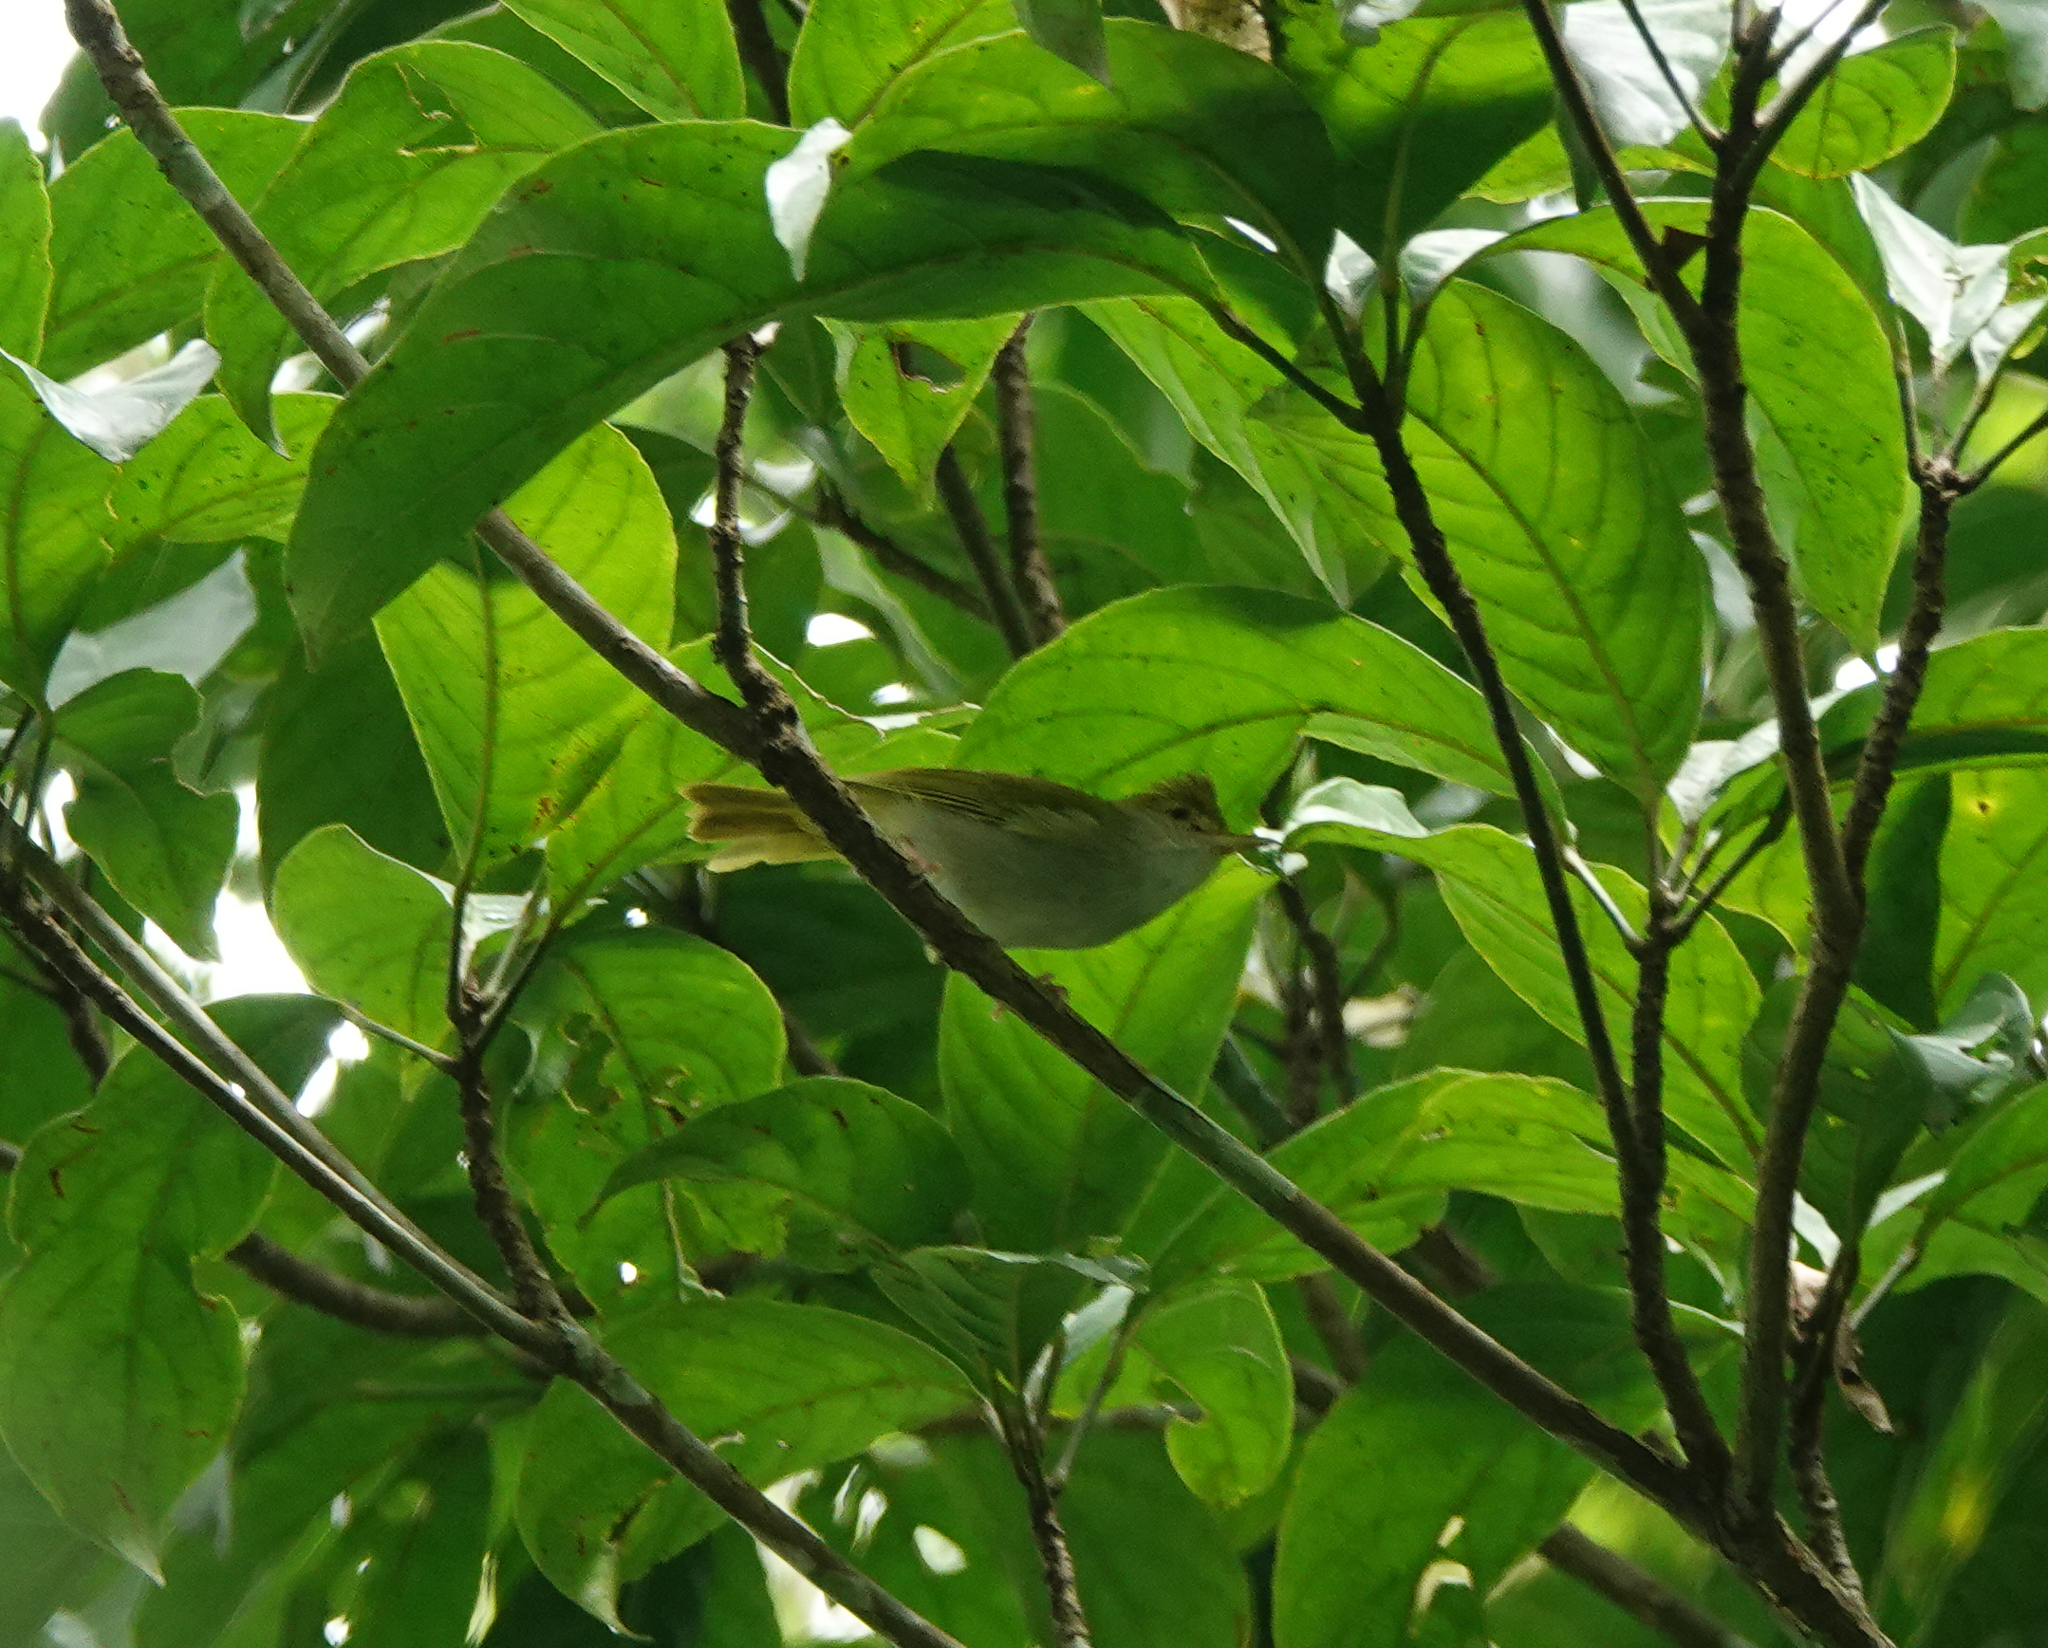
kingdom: Animalia
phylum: Chordata
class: Aves
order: Passeriformes
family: Vireonidae
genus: Erpornis
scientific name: Erpornis zantholeuca
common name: White-bellied erpornis
